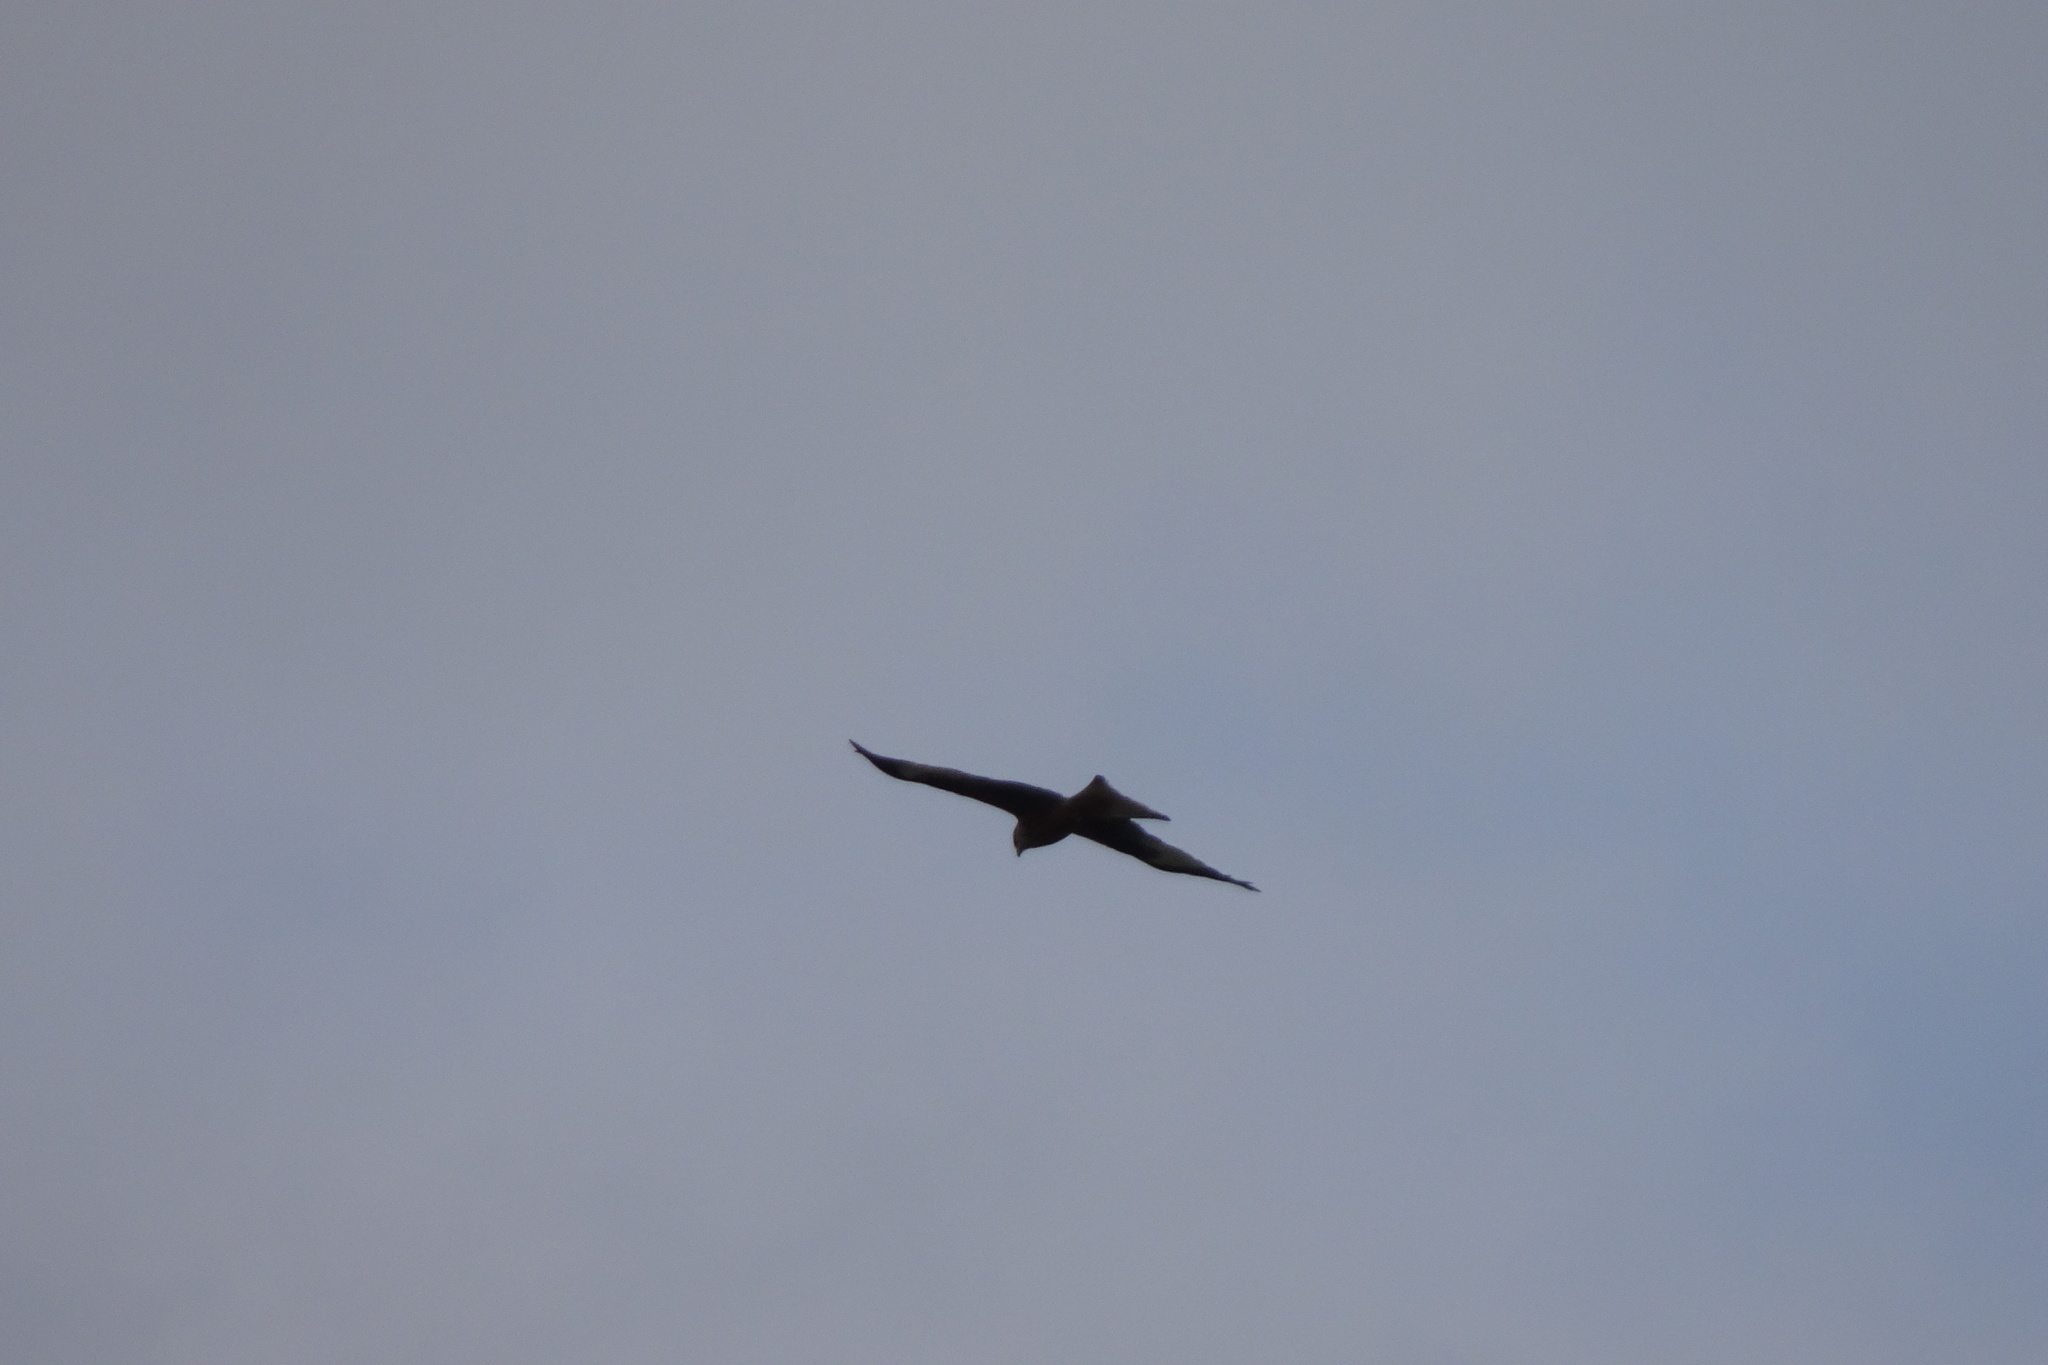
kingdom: Animalia
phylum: Chordata
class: Aves
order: Accipitriformes
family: Accipitridae
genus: Milvus
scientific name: Milvus milvus
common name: Red kite
